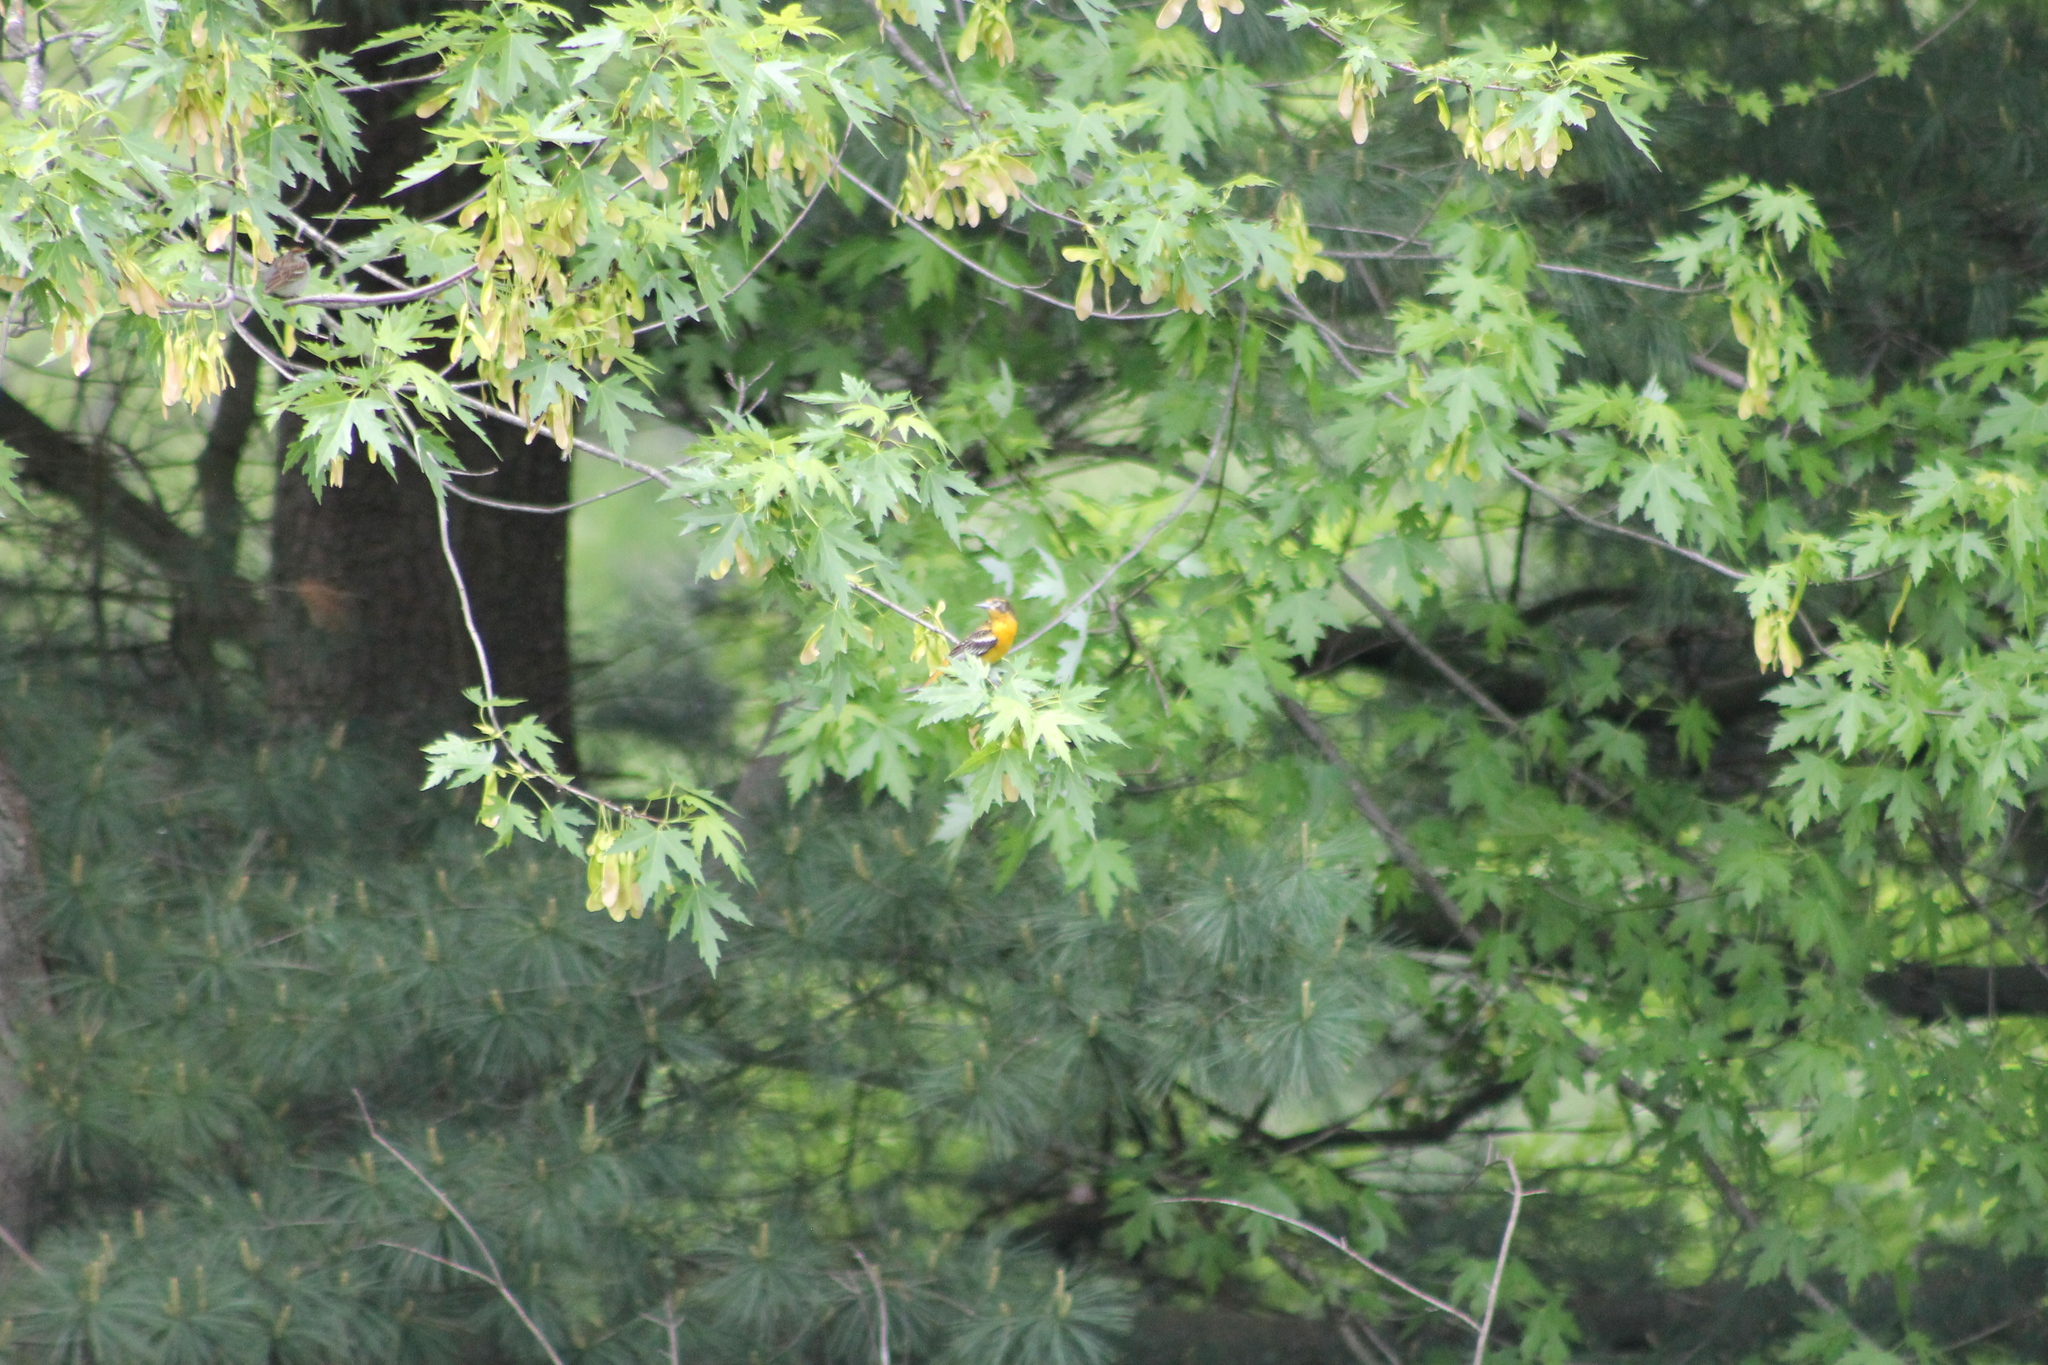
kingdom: Animalia
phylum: Chordata
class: Aves
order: Passeriformes
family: Icteridae
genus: Icterus
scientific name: Icterus galbula
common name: Baltimore oriole
